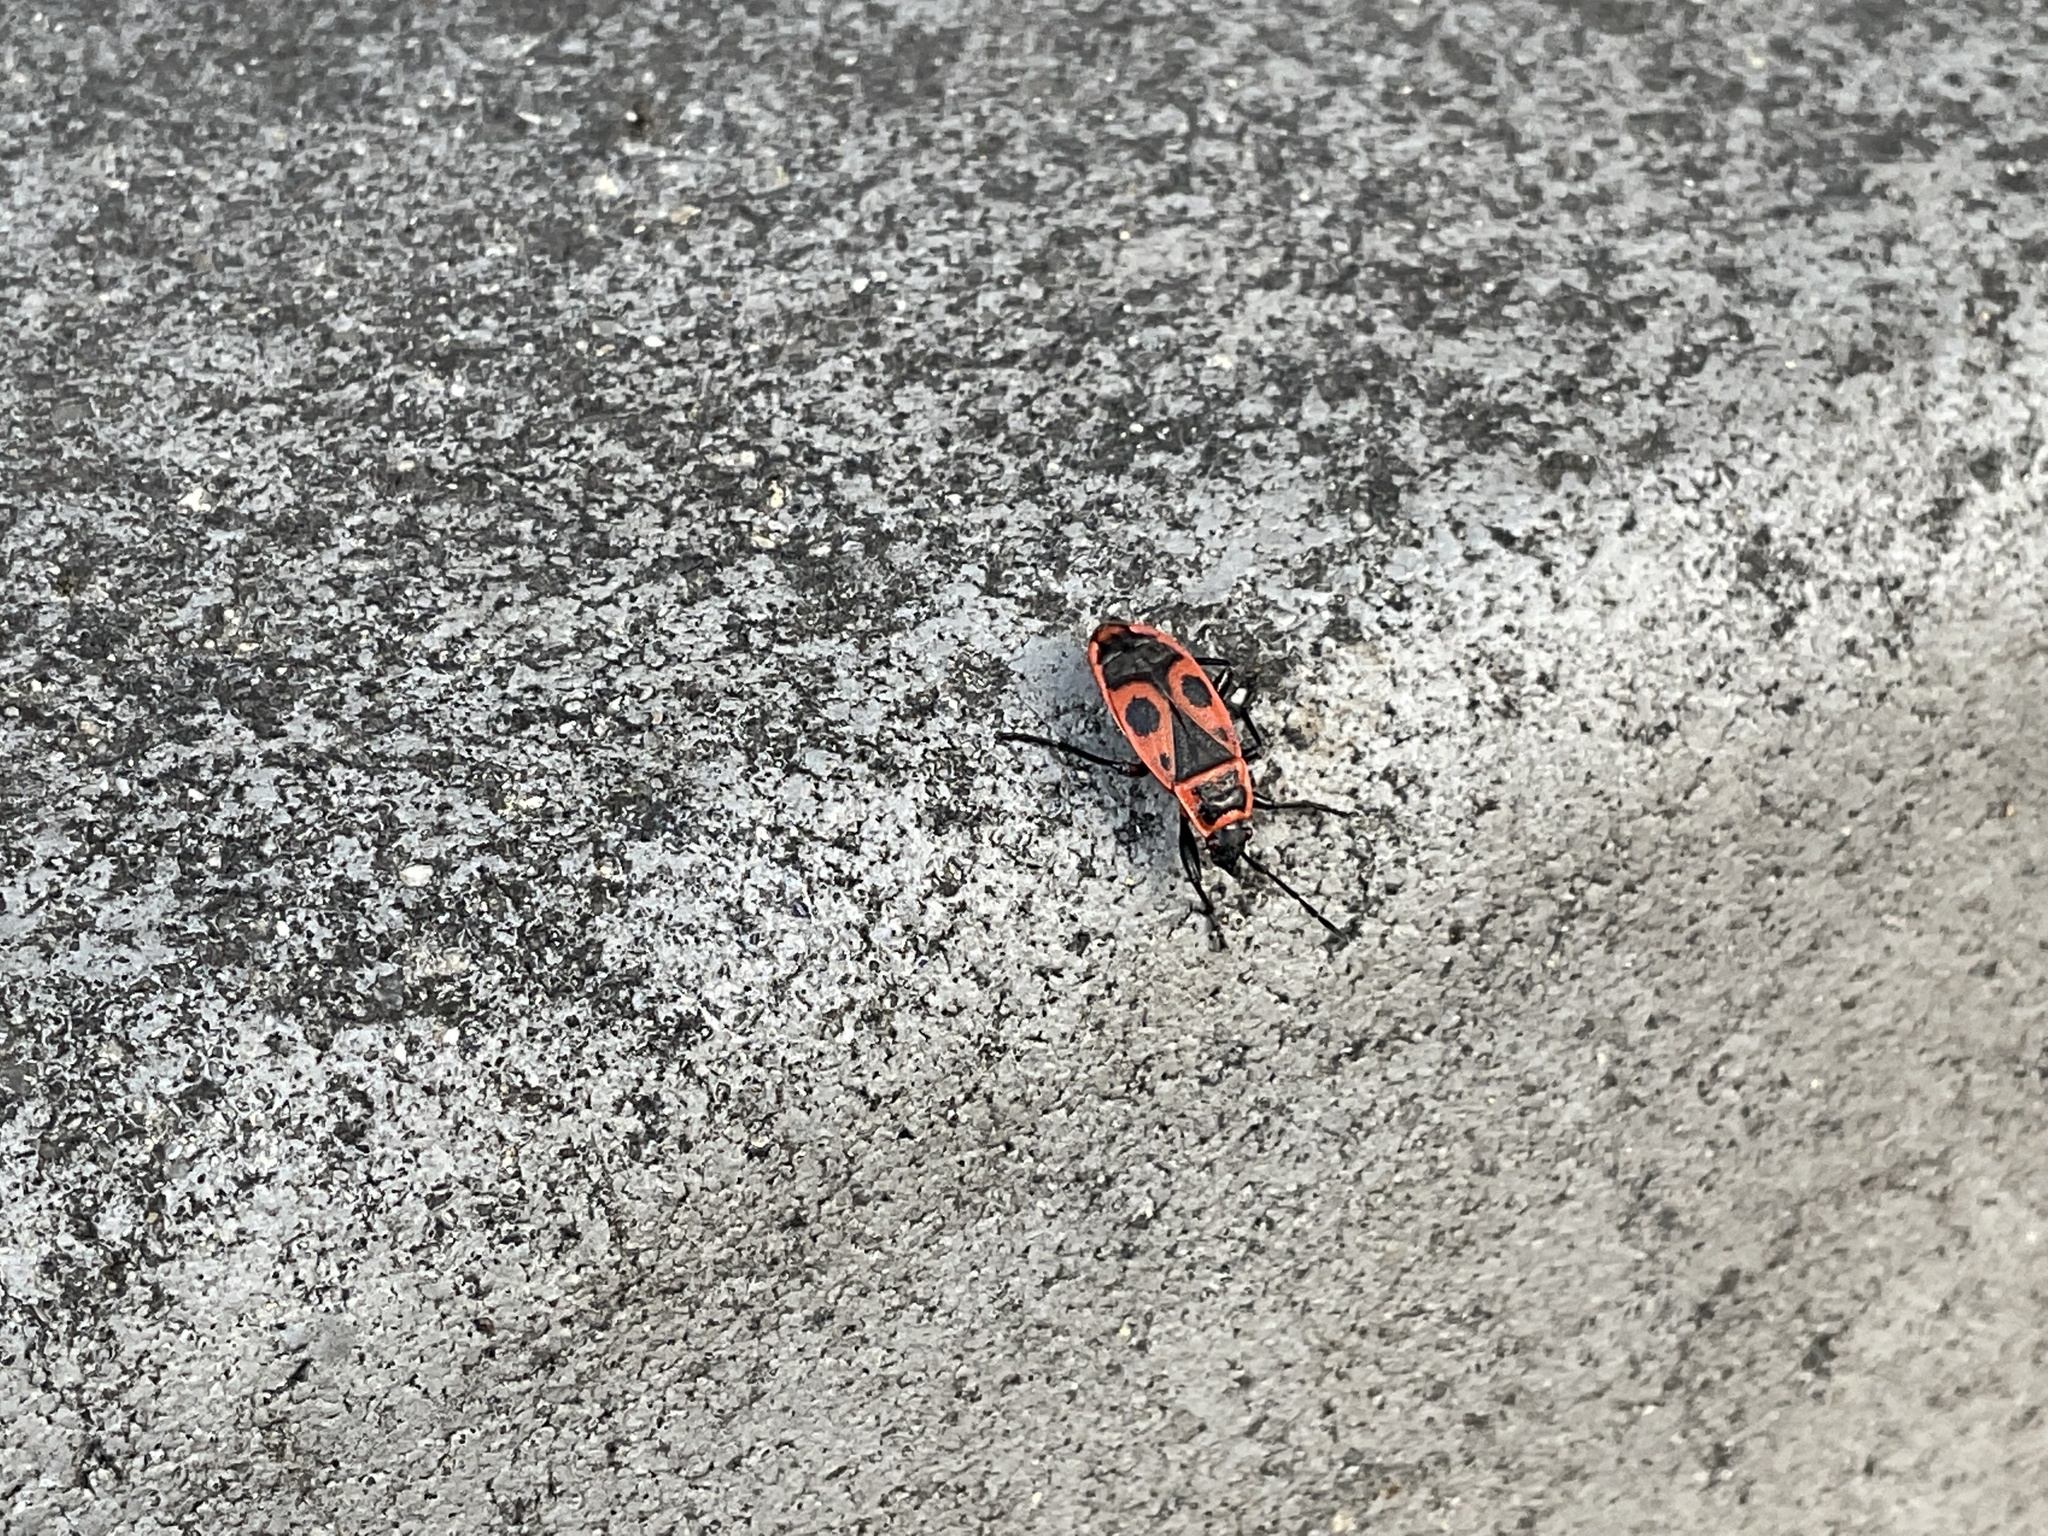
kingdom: Animalia
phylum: Arthropoda
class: Insecta
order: Hemiptera
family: Pyrrhocoridae
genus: Pyrrhocoris
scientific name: Pyrrhocoris apterus
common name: Firebug
